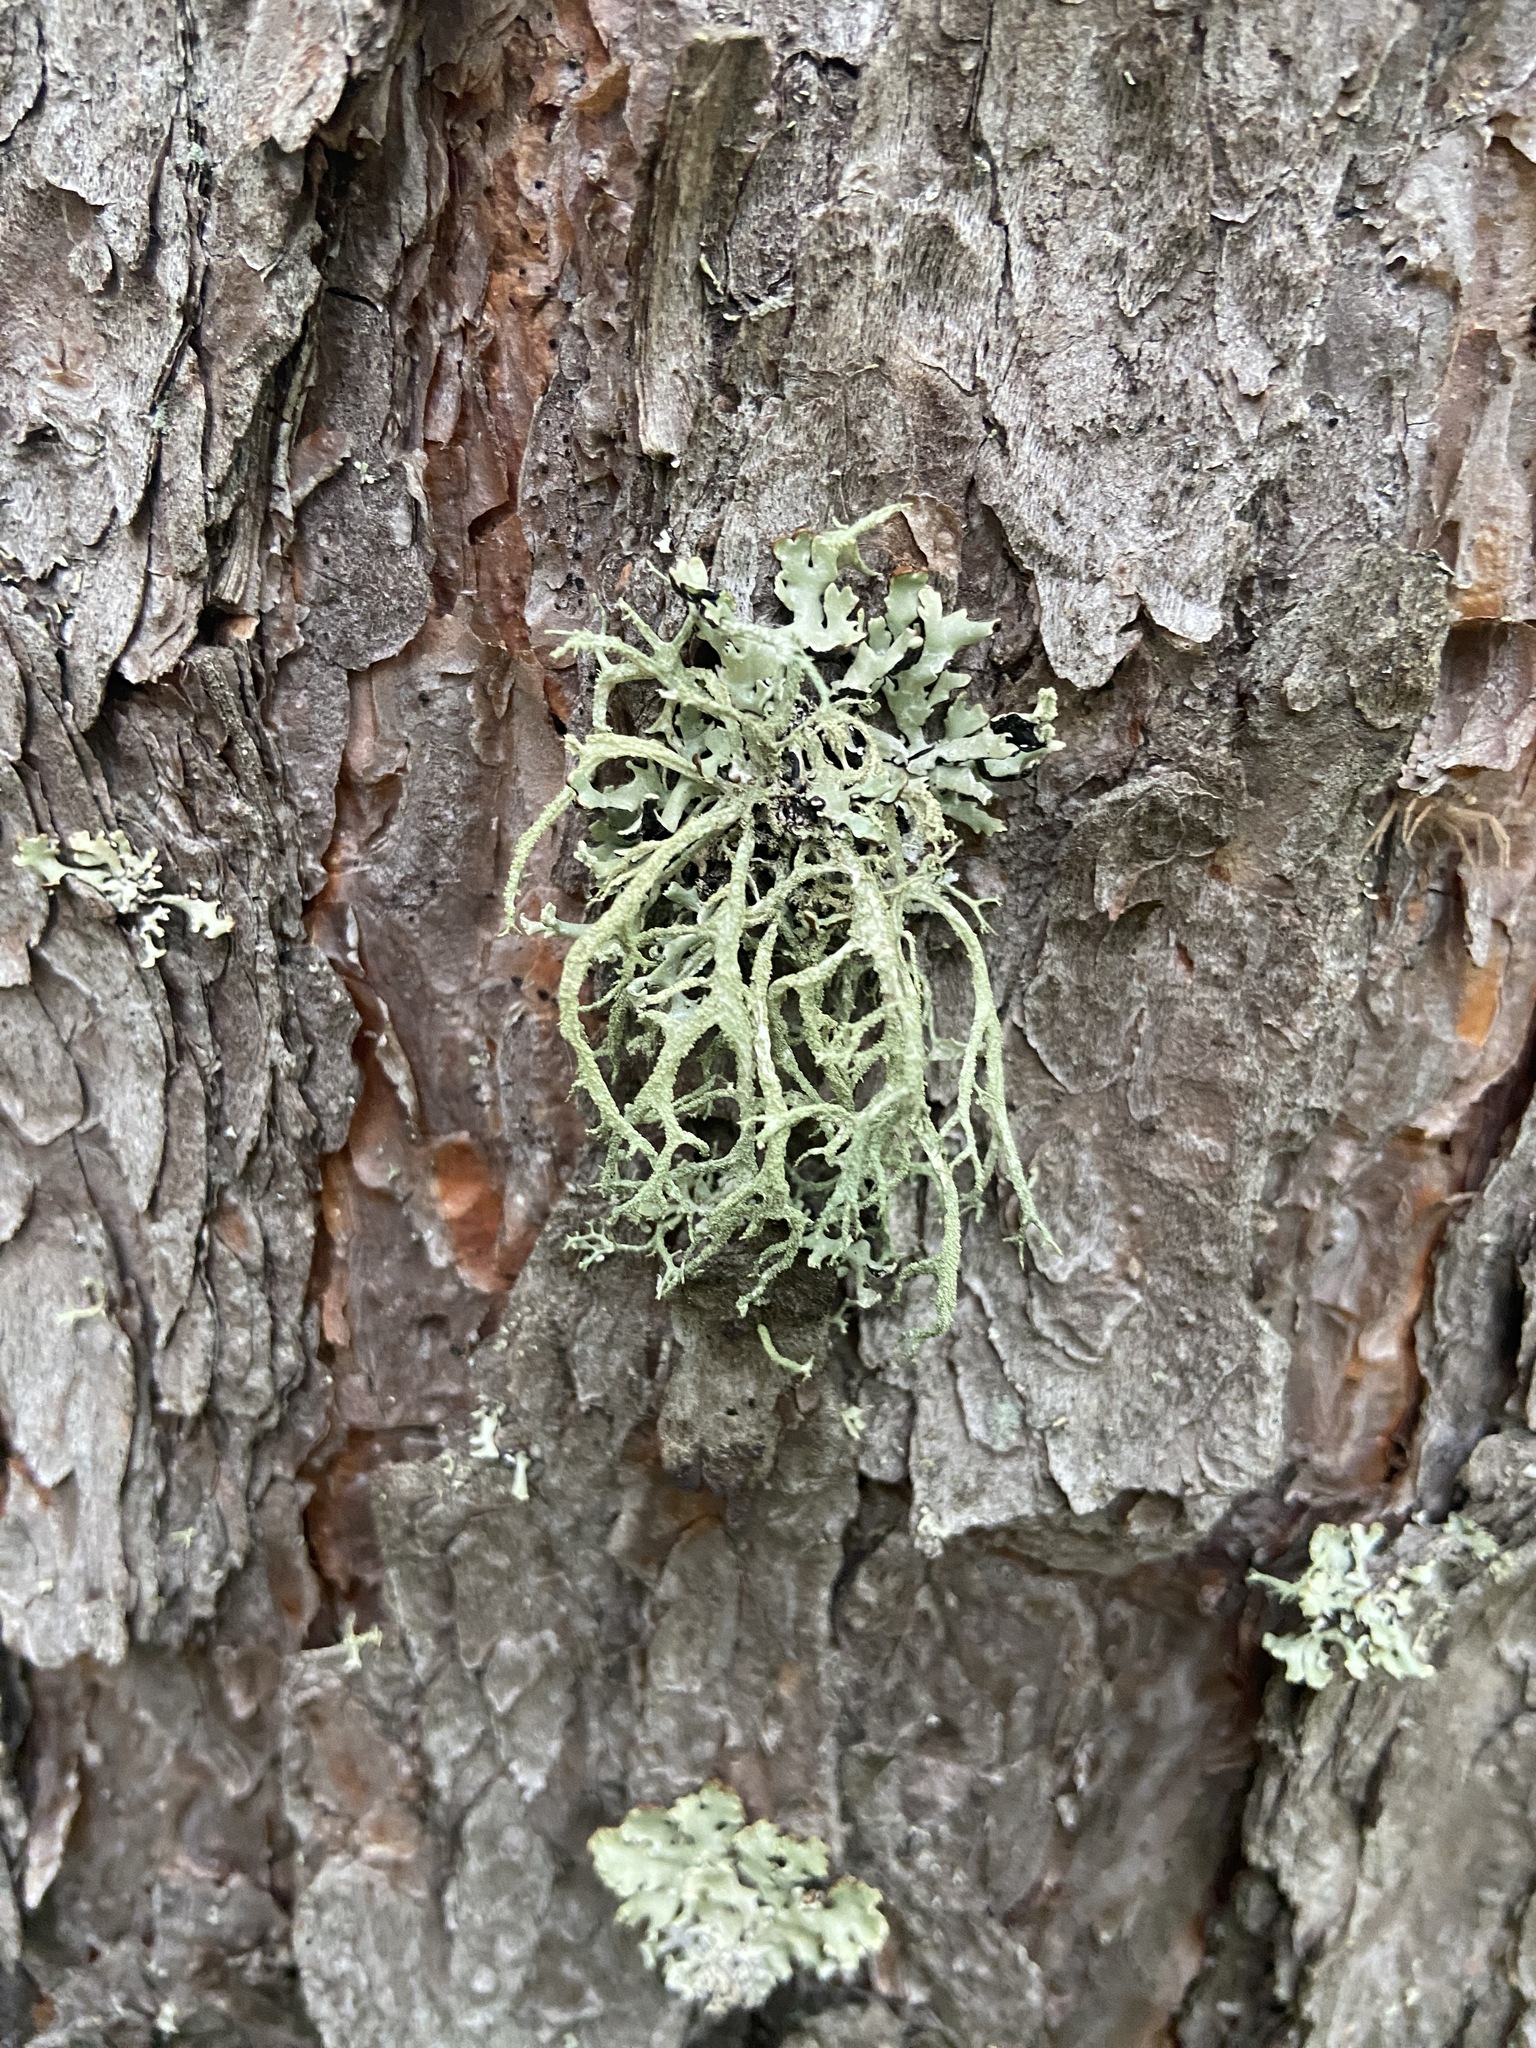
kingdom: Fungi
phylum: Ascomycota
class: Lecanoromycetes
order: Lecanorales
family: Parmeliaceae
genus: Evernia
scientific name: Evernia mesomorpha
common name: Boreal oak moss lichen
